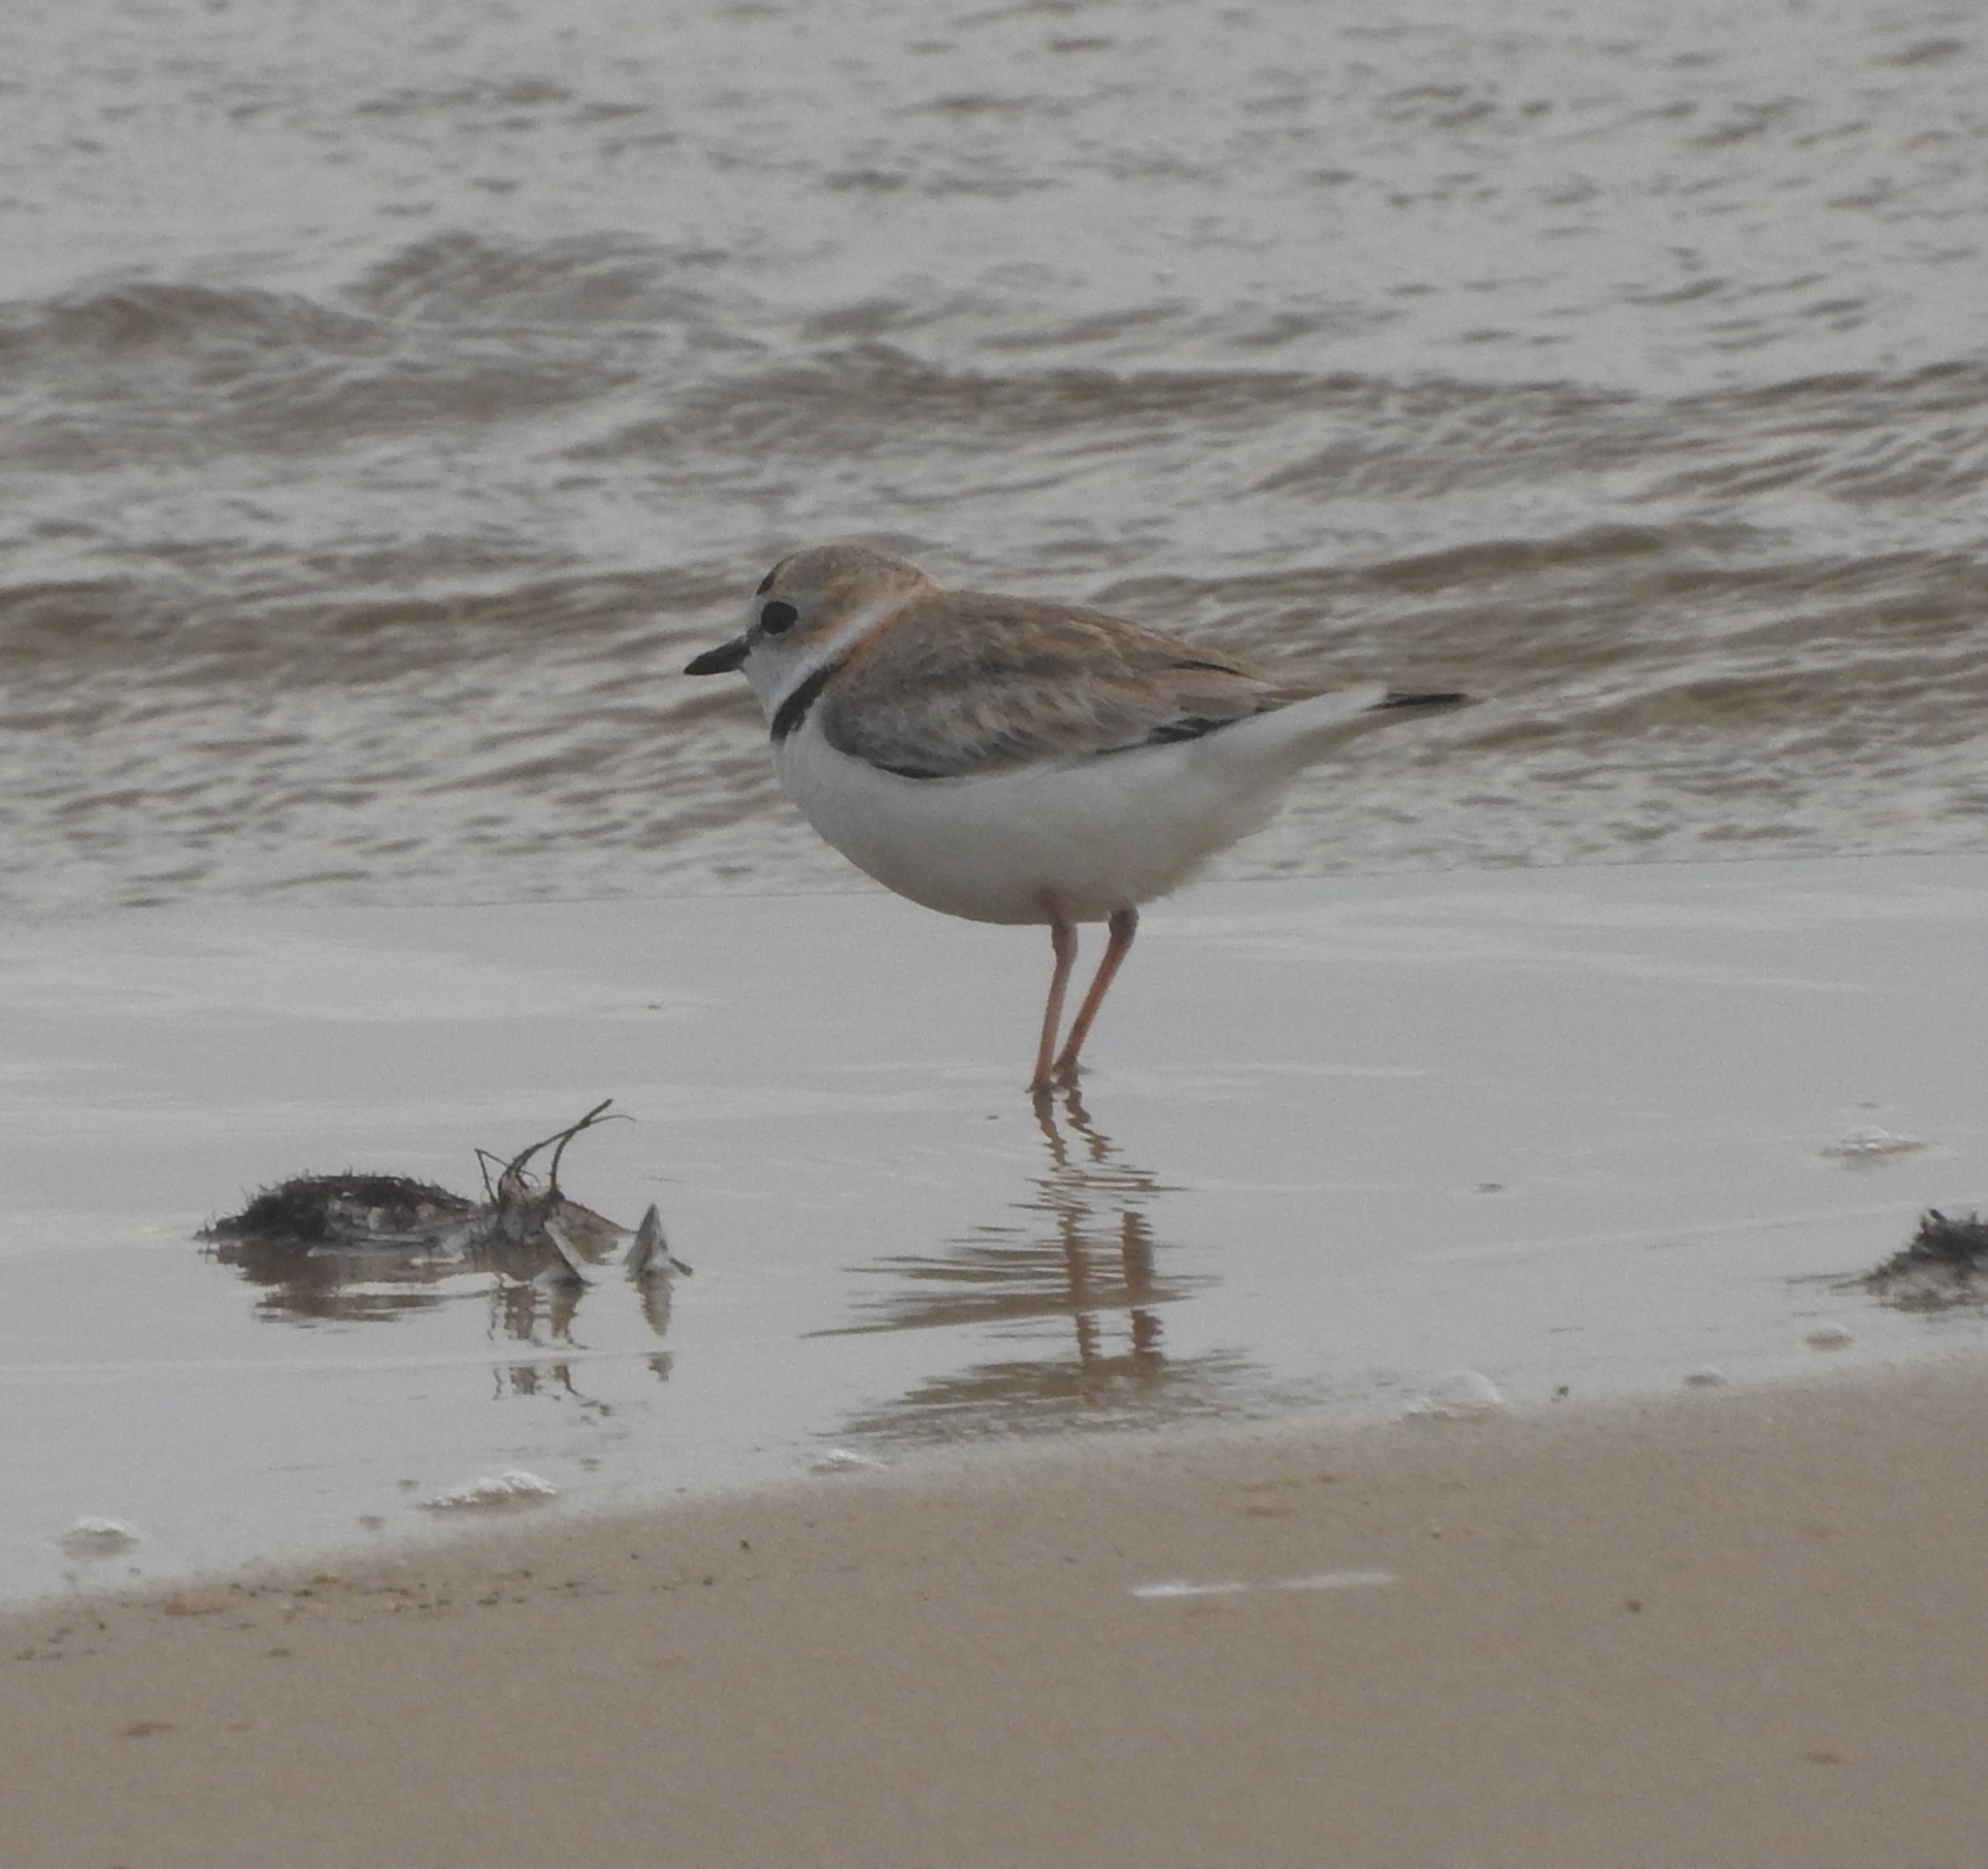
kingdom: Animalia
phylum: Chordata
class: Aves
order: Charadriiformes
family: Charadriidae
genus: Anarhynchus
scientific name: Anarhynchus
